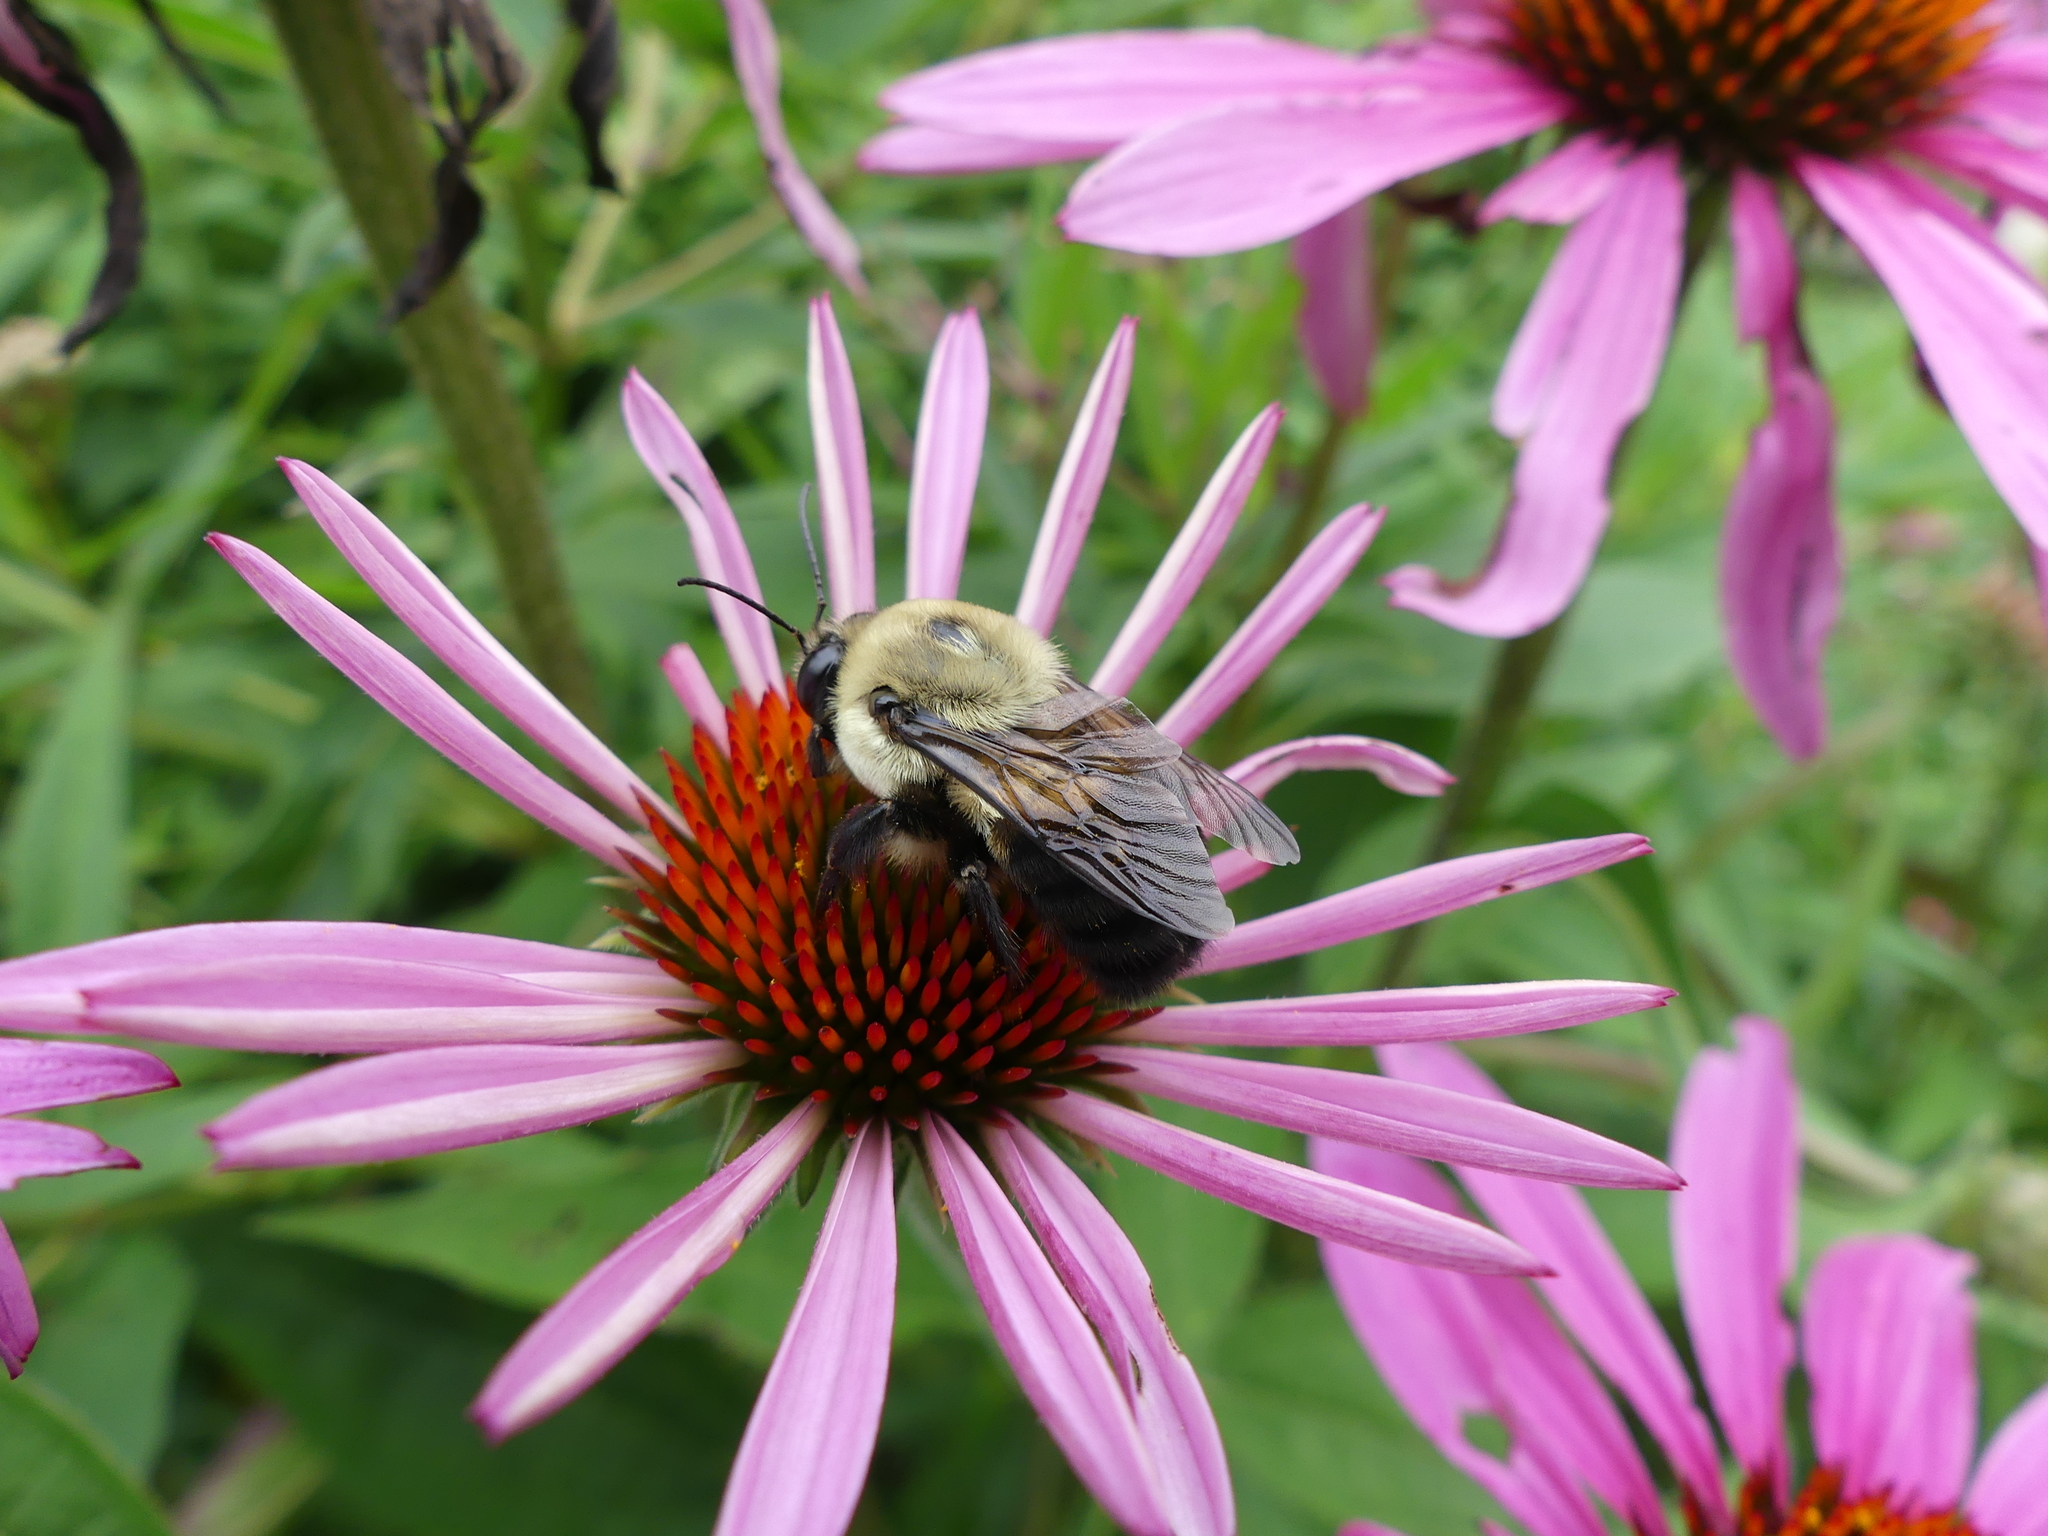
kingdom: Animalia
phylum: Arthropoda
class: Insecta
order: Hymenoptera
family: Apidae
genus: Bombus
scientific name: Bombus griseocollis
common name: Brown-belted bumble bee
